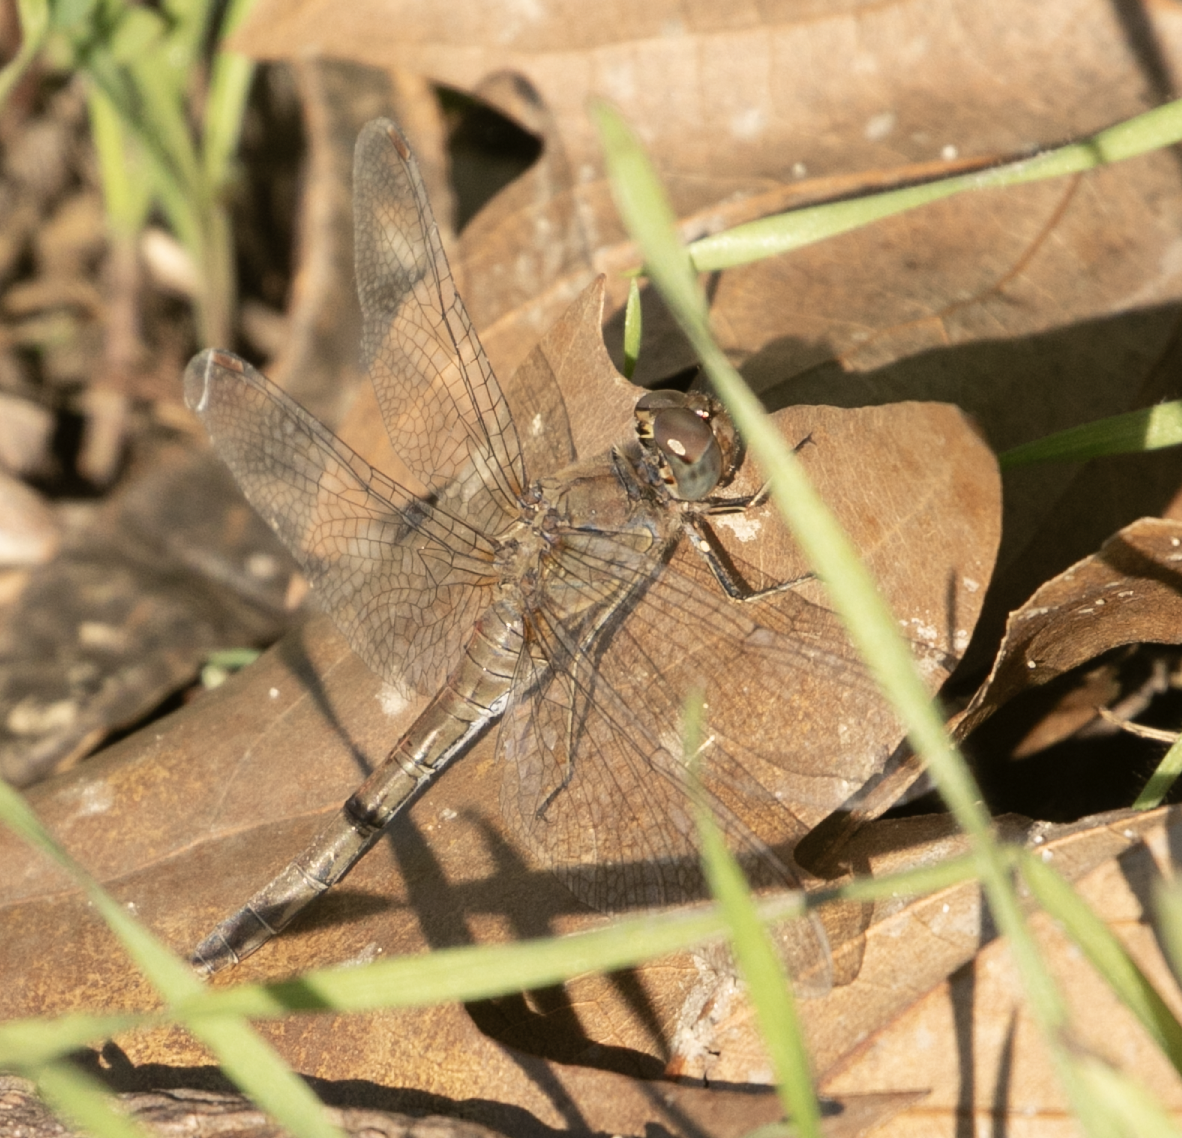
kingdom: Animalia
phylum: Arthropoda
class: Insecta
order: Odonata
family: Libellulidae
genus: Sympetrum
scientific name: Sympetrum striolatum
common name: Common darter
